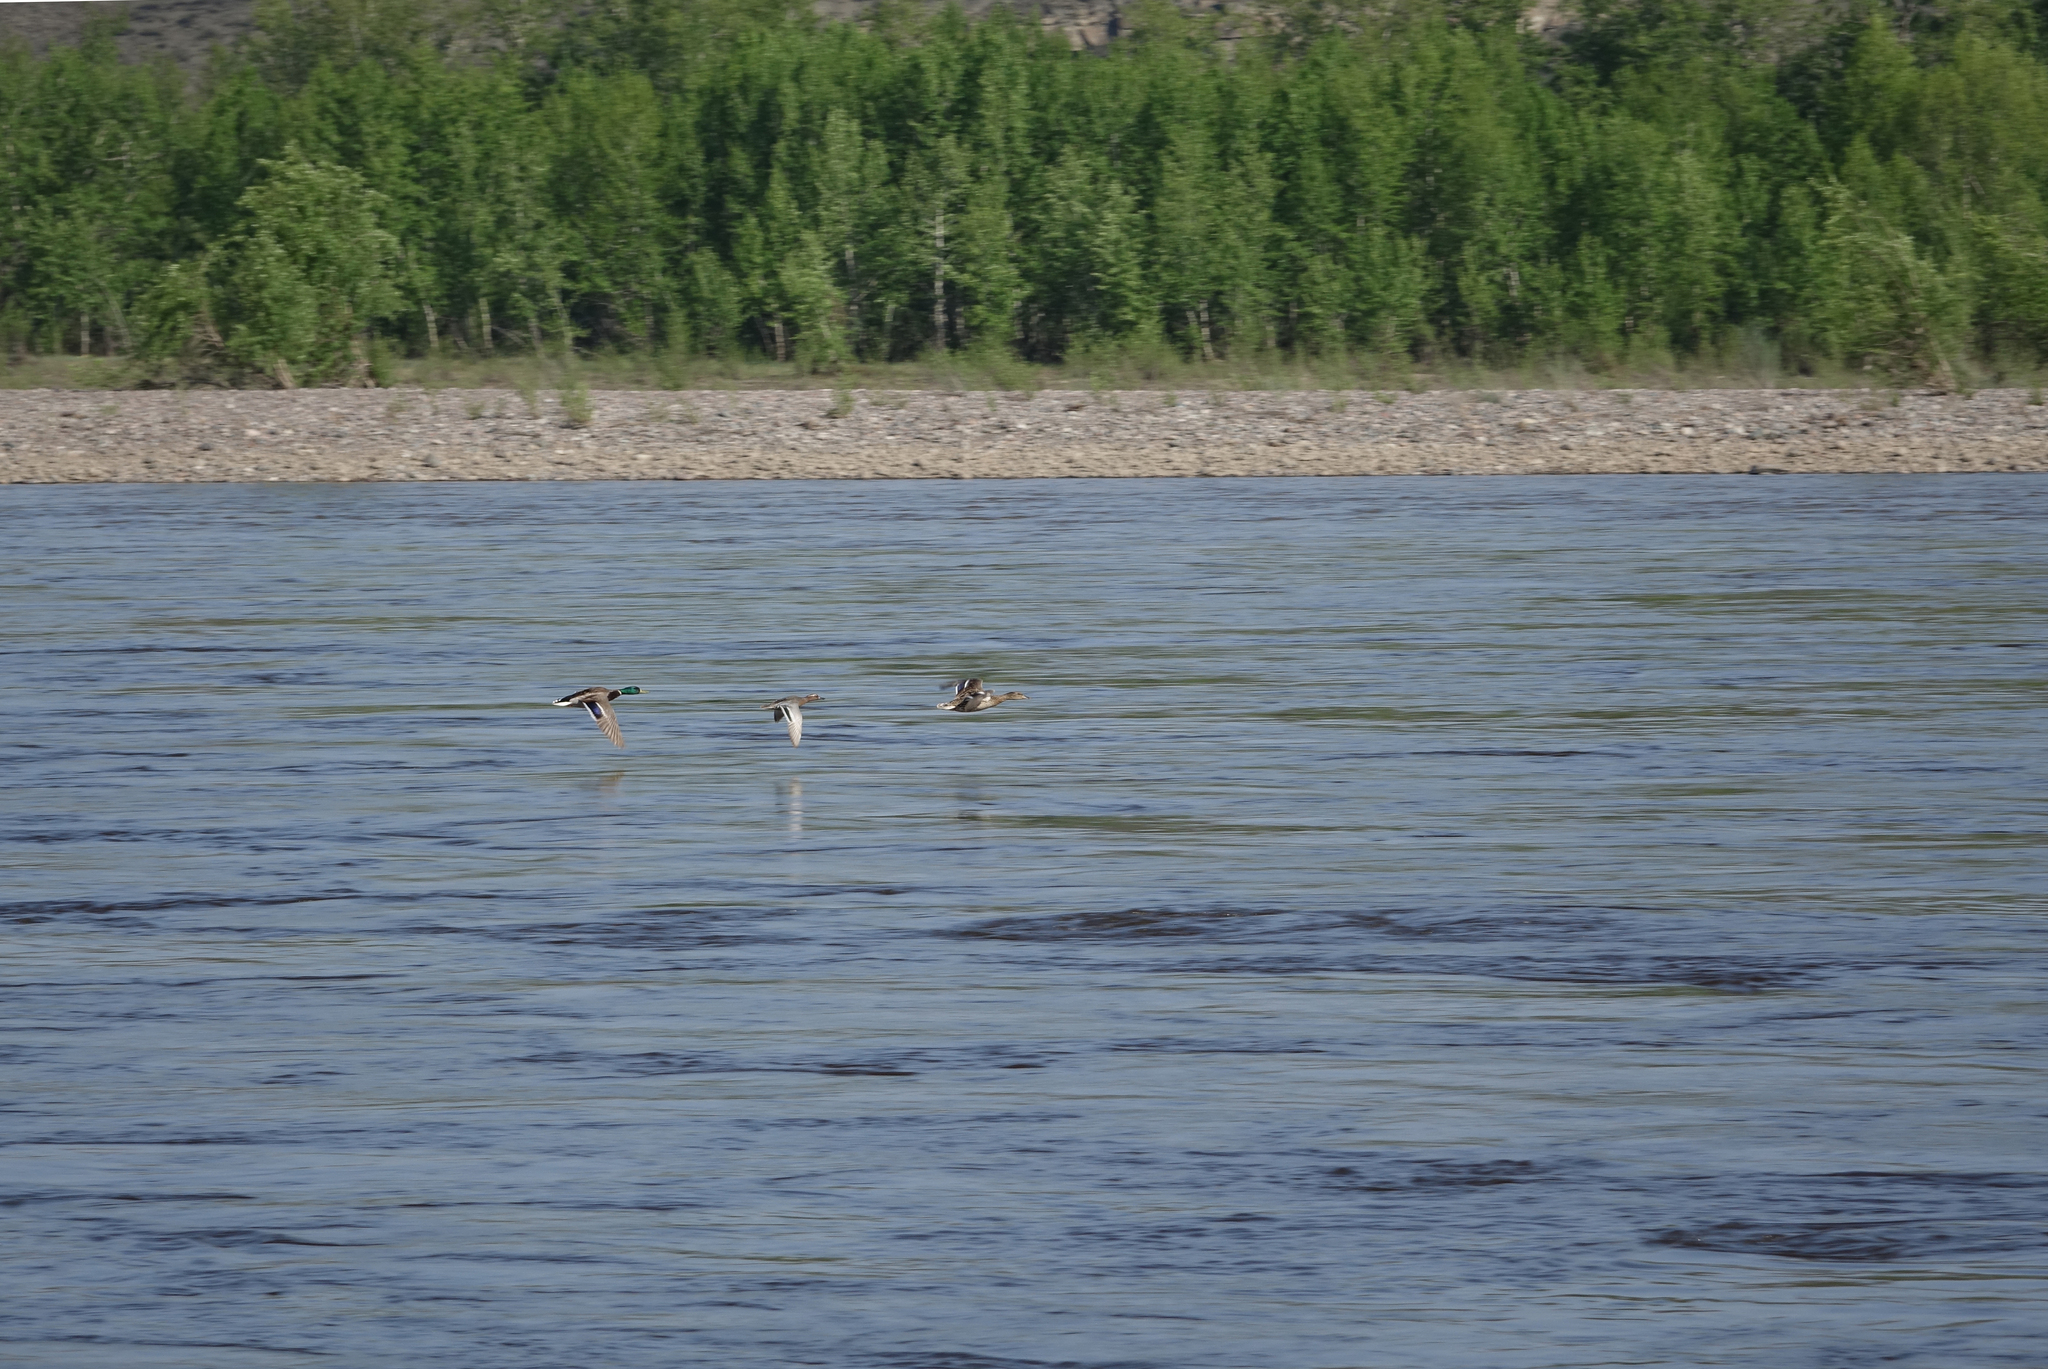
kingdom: Animalia
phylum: Chordata
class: Aves
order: Anseriformes
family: Anatidae
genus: Spatula
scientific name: Spatula querquedula
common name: Garganey
